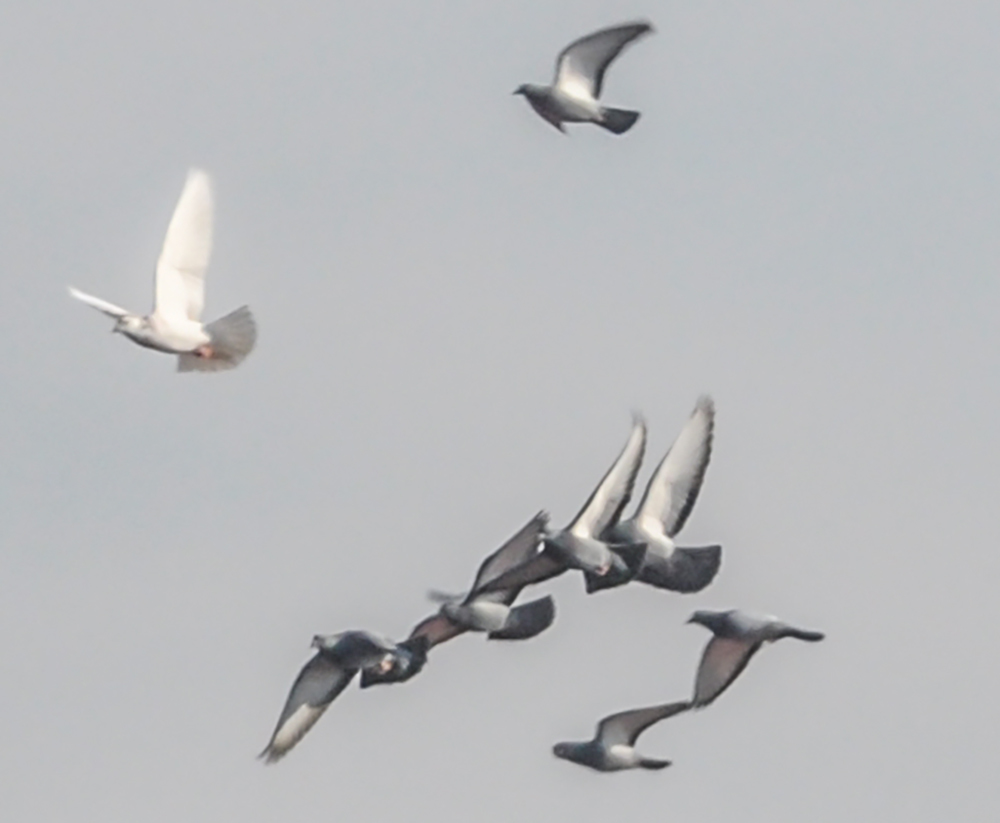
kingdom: Animalia
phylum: Chordata
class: Aves
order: Columbiformes
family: Columbidae
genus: Columba
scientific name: Columba livia
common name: Rock pigeon
